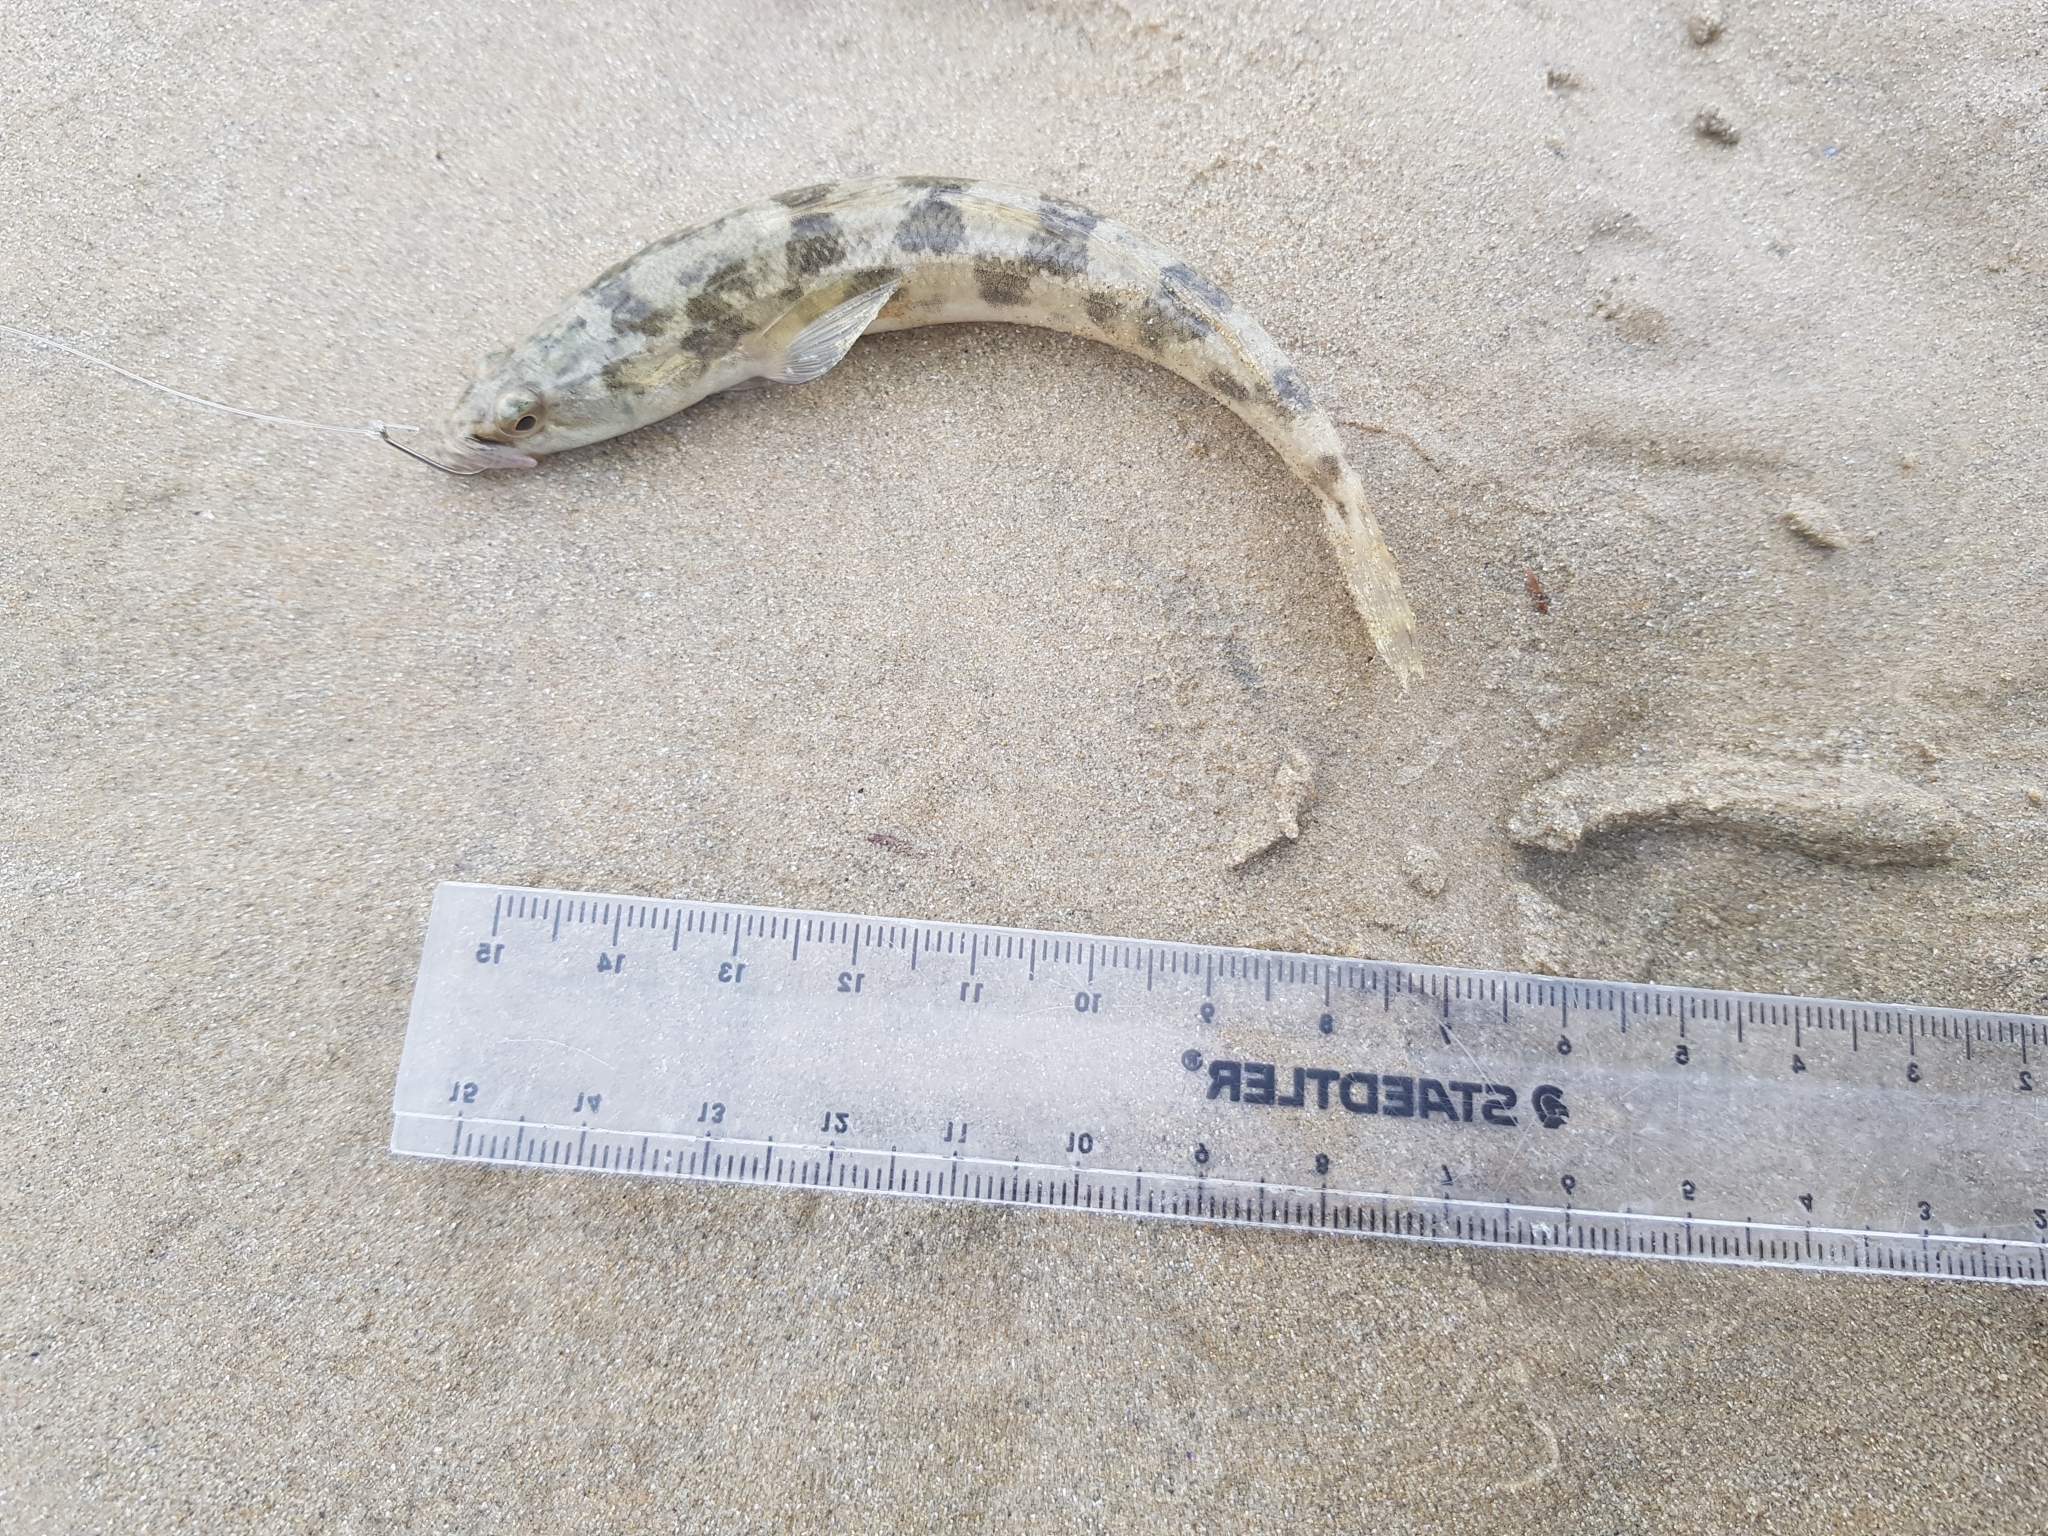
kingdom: Animalia
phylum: Chordata
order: Perciformes
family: Pseudaphritidae
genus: Pseudaphritis
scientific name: Pseudaphritis urvillii
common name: Tupong
